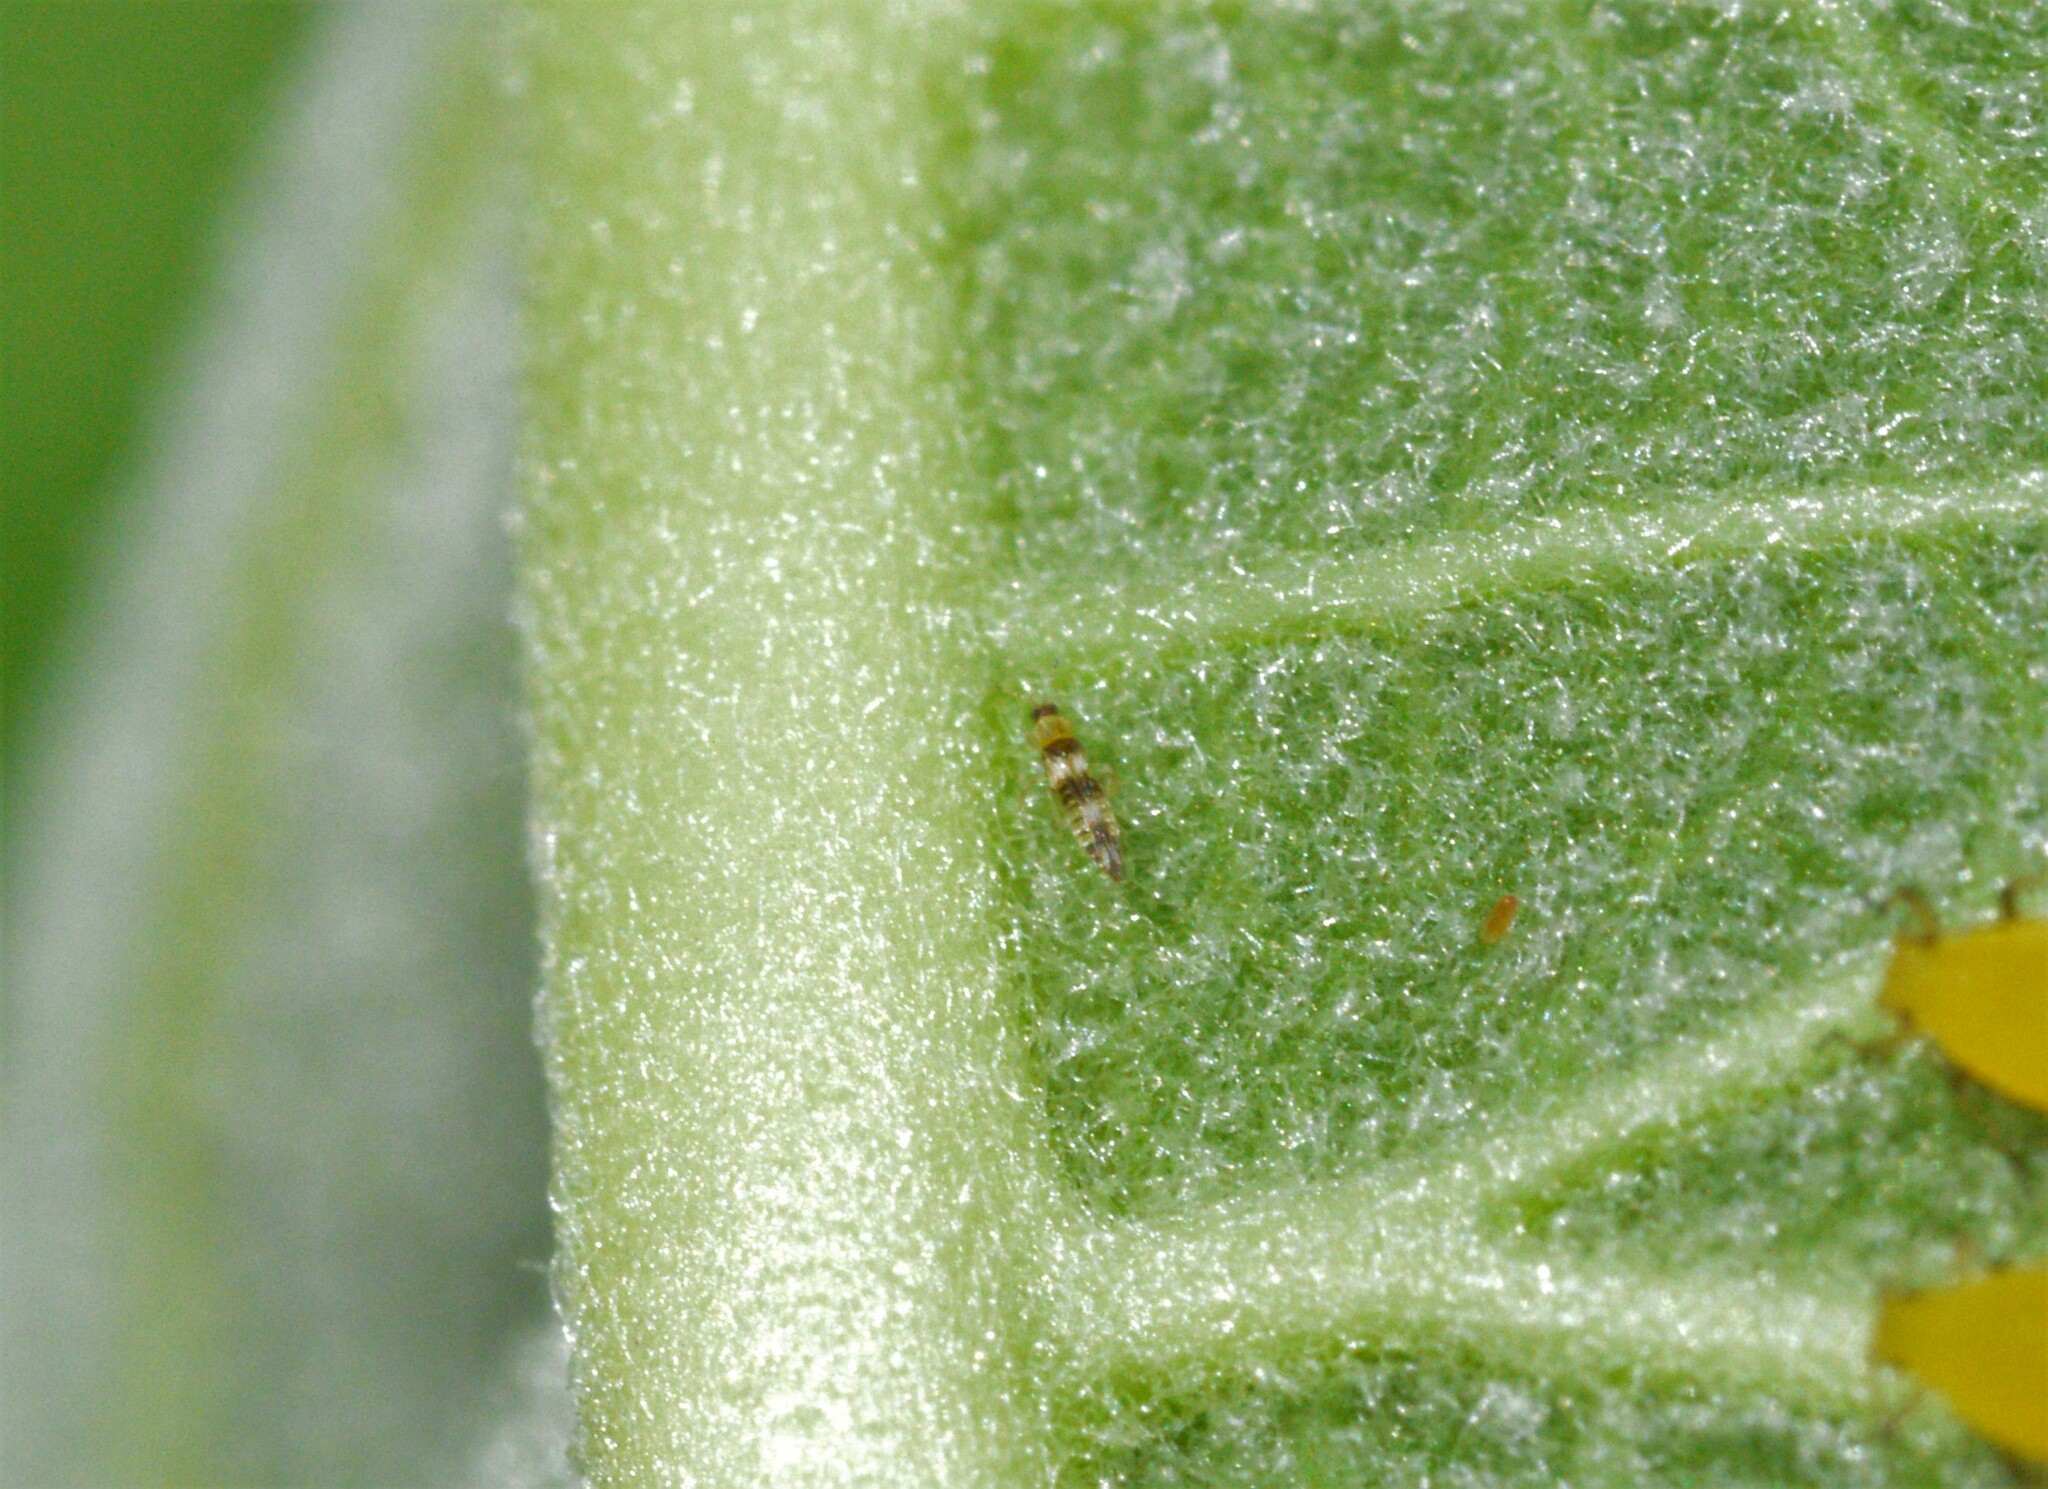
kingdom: Animalia
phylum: Arthropoda
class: Insecta
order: Thysanoptera
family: Aeolothripidae
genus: Aeolothrips
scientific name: Aeolothrips collaris
